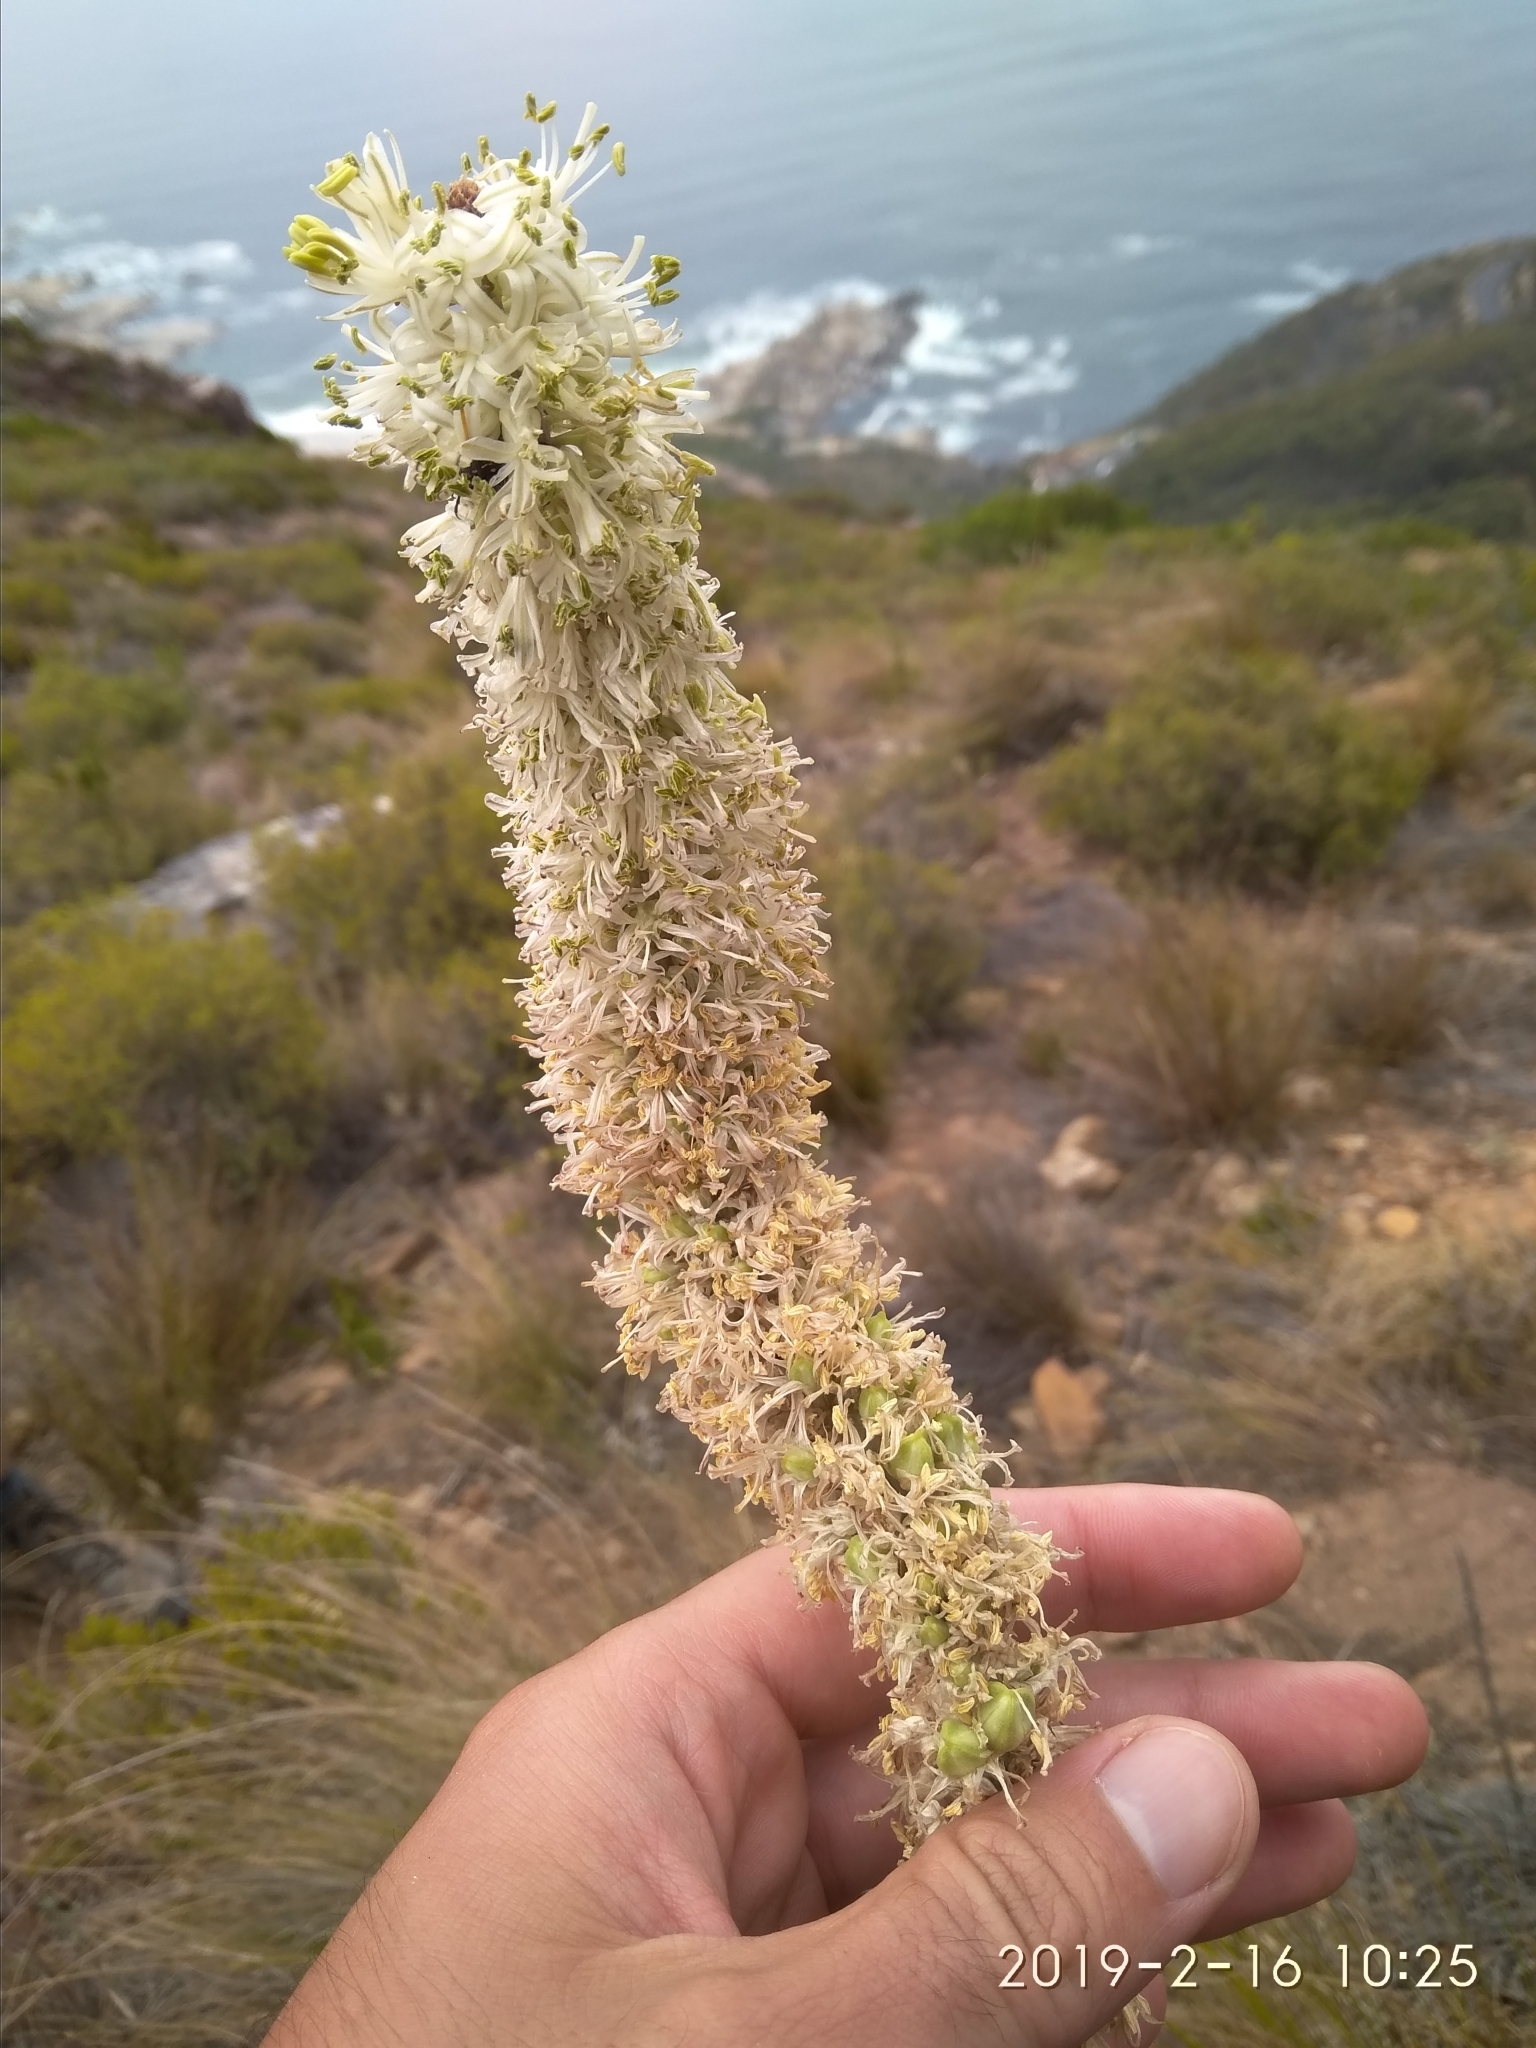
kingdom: Plantae
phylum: Tracheophyta
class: Liliopsida
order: Asparagales
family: Asparagaceae
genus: Drimia
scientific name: Drimia capensis
